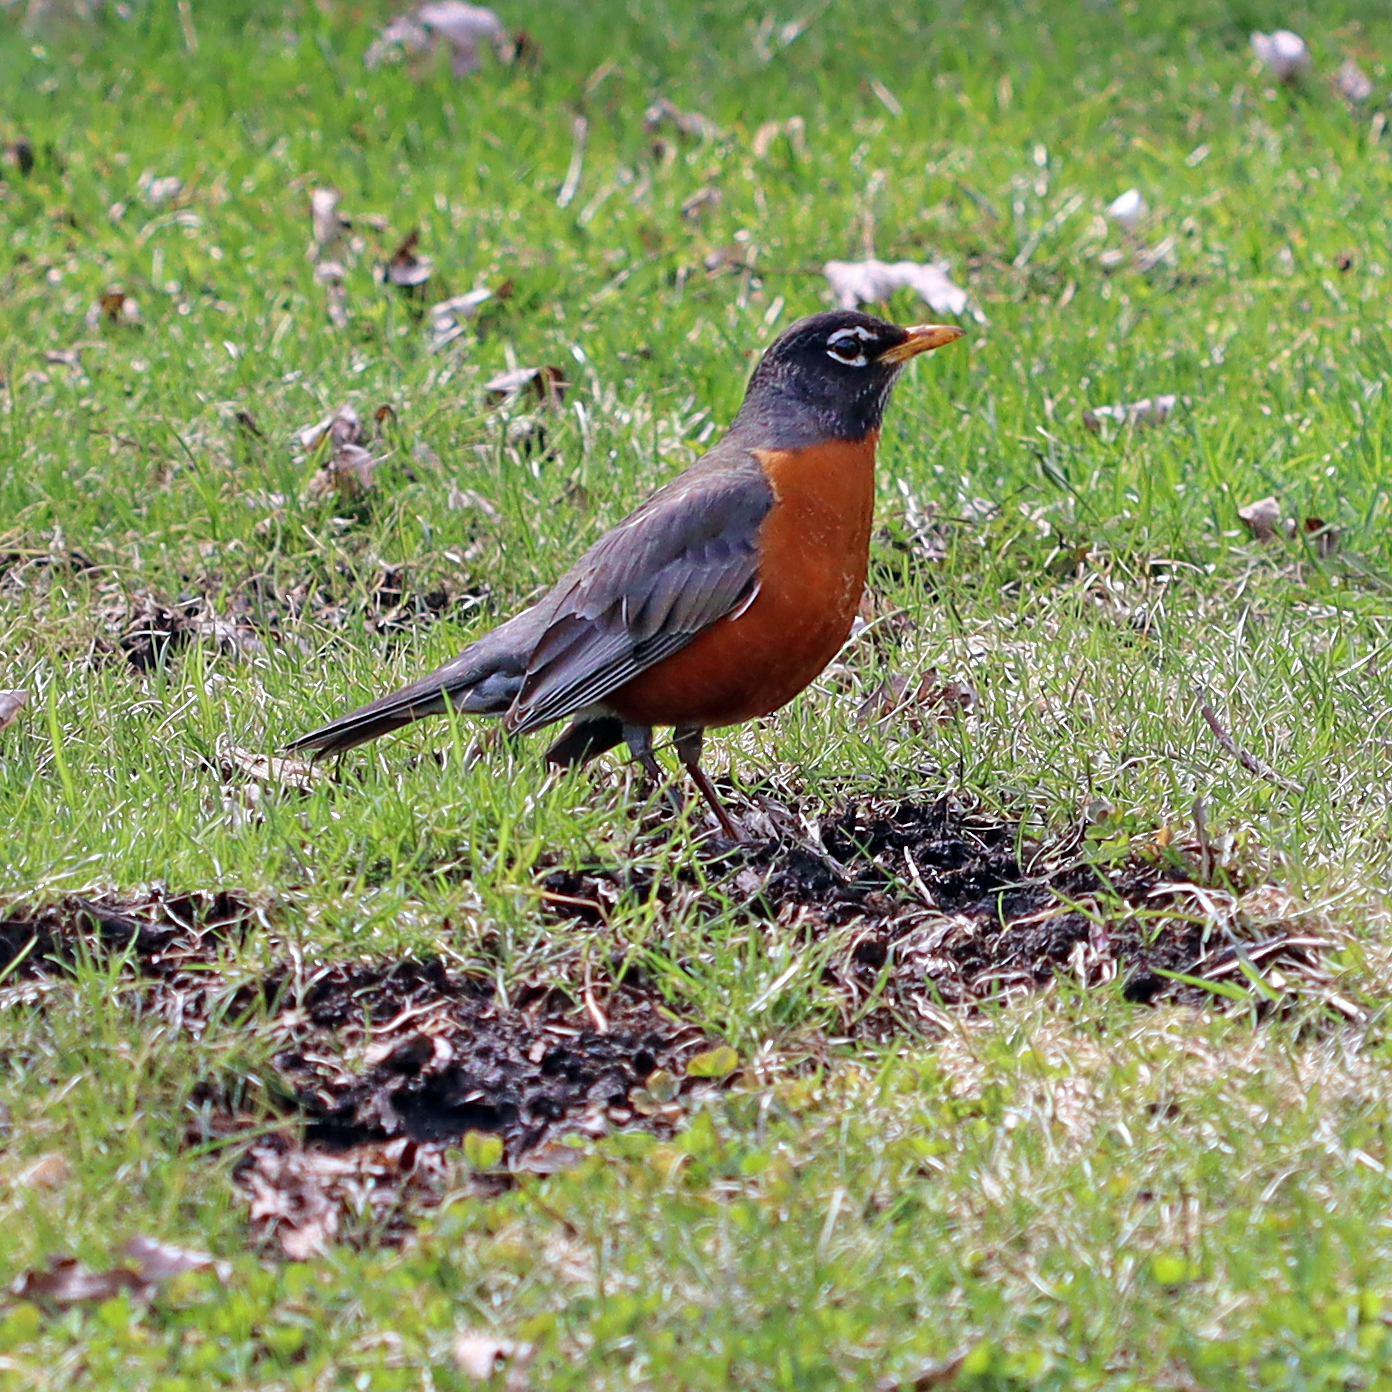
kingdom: Animalia
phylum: Chordata
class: Aves
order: Passeriformes
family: Turdidae
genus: Turdus
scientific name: Turdus migratorius
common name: American robin
